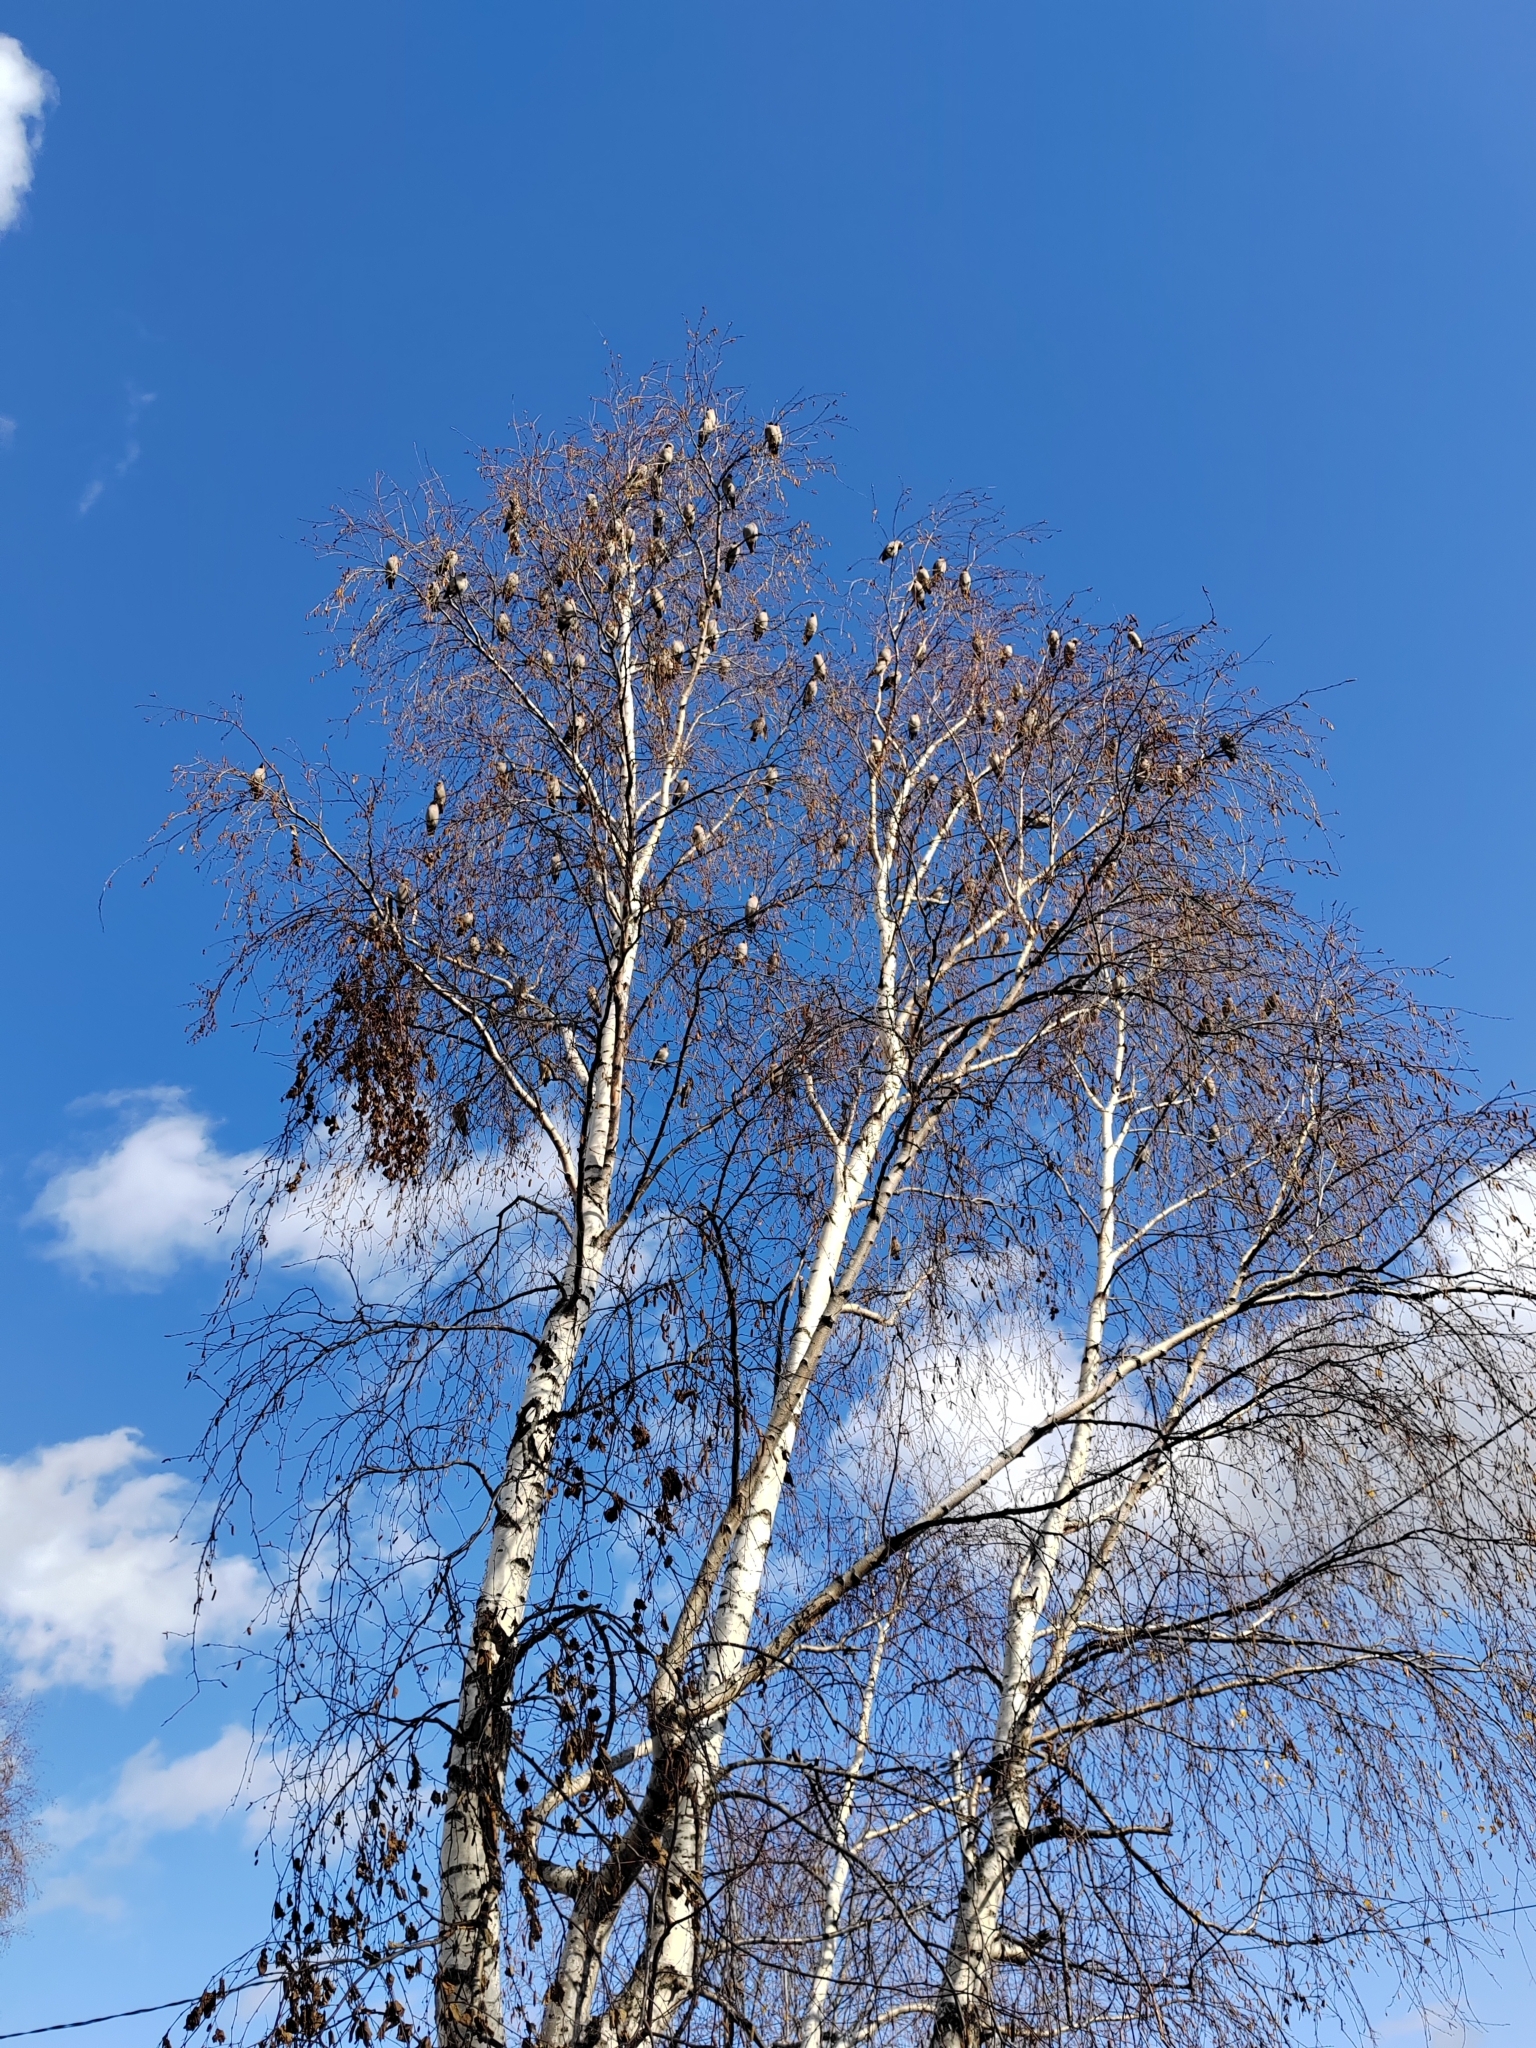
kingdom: Animalia
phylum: Chordata
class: Aves
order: Passeriformes
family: Bombycillidae
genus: Bombycilla
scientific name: Bombycilla garrulus
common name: Bohemian waxwing
